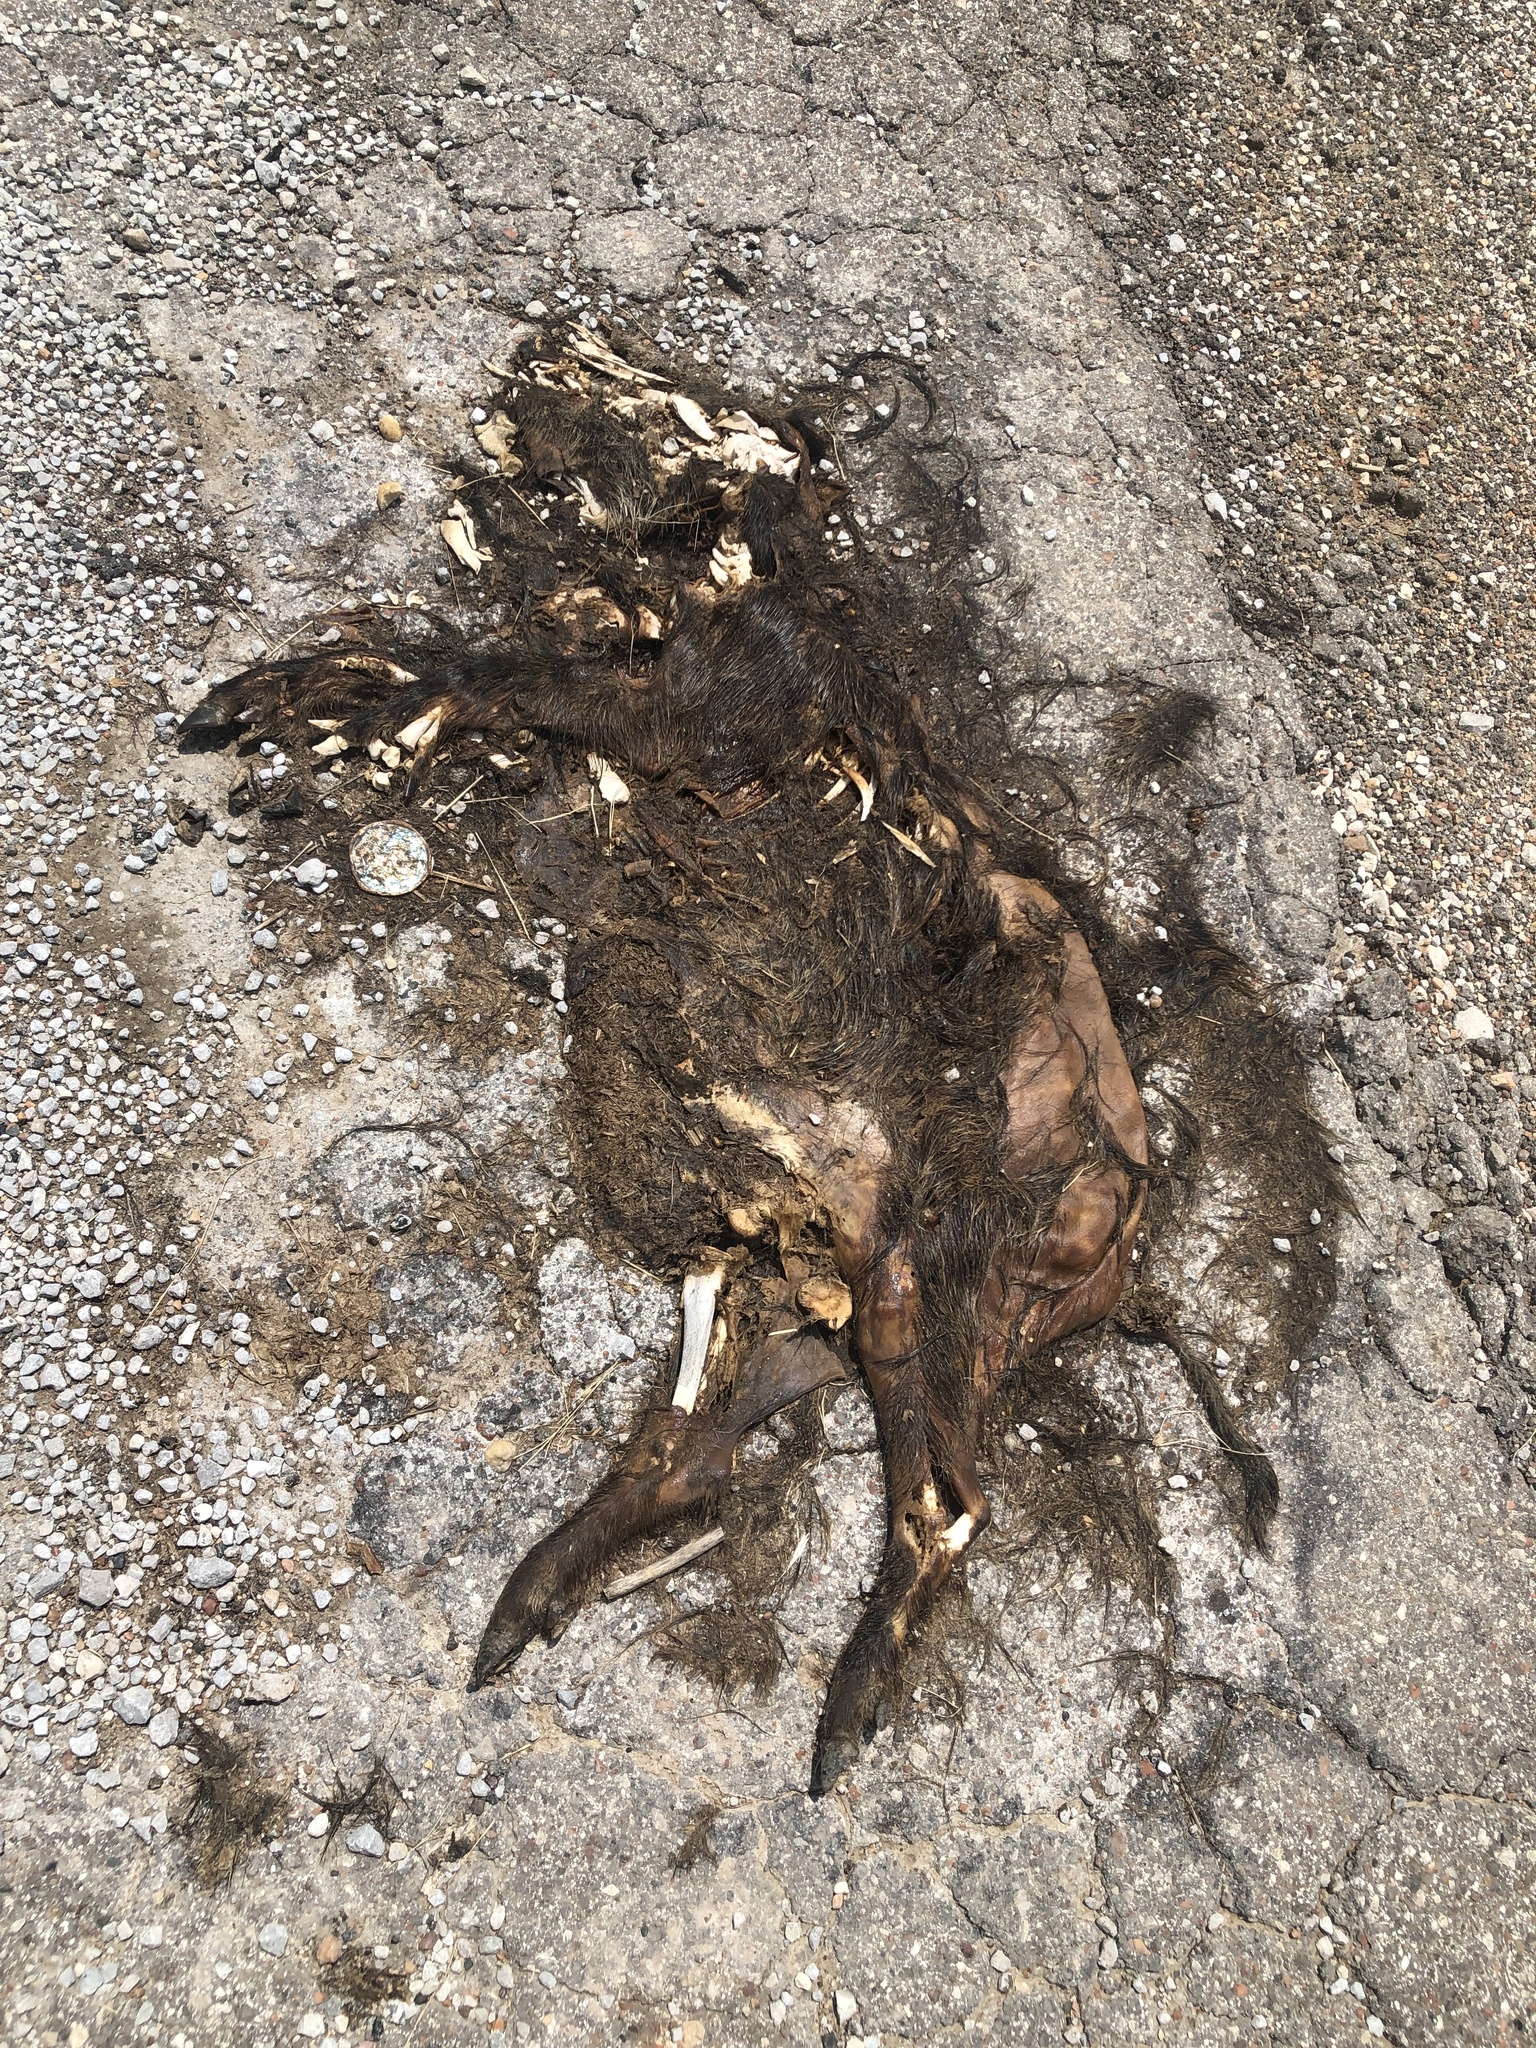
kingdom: Animalia
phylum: Chordata
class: Mammalia
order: Artiodactyla
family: Suidae
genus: Sus
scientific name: Sus scrofa
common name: Wild boar
